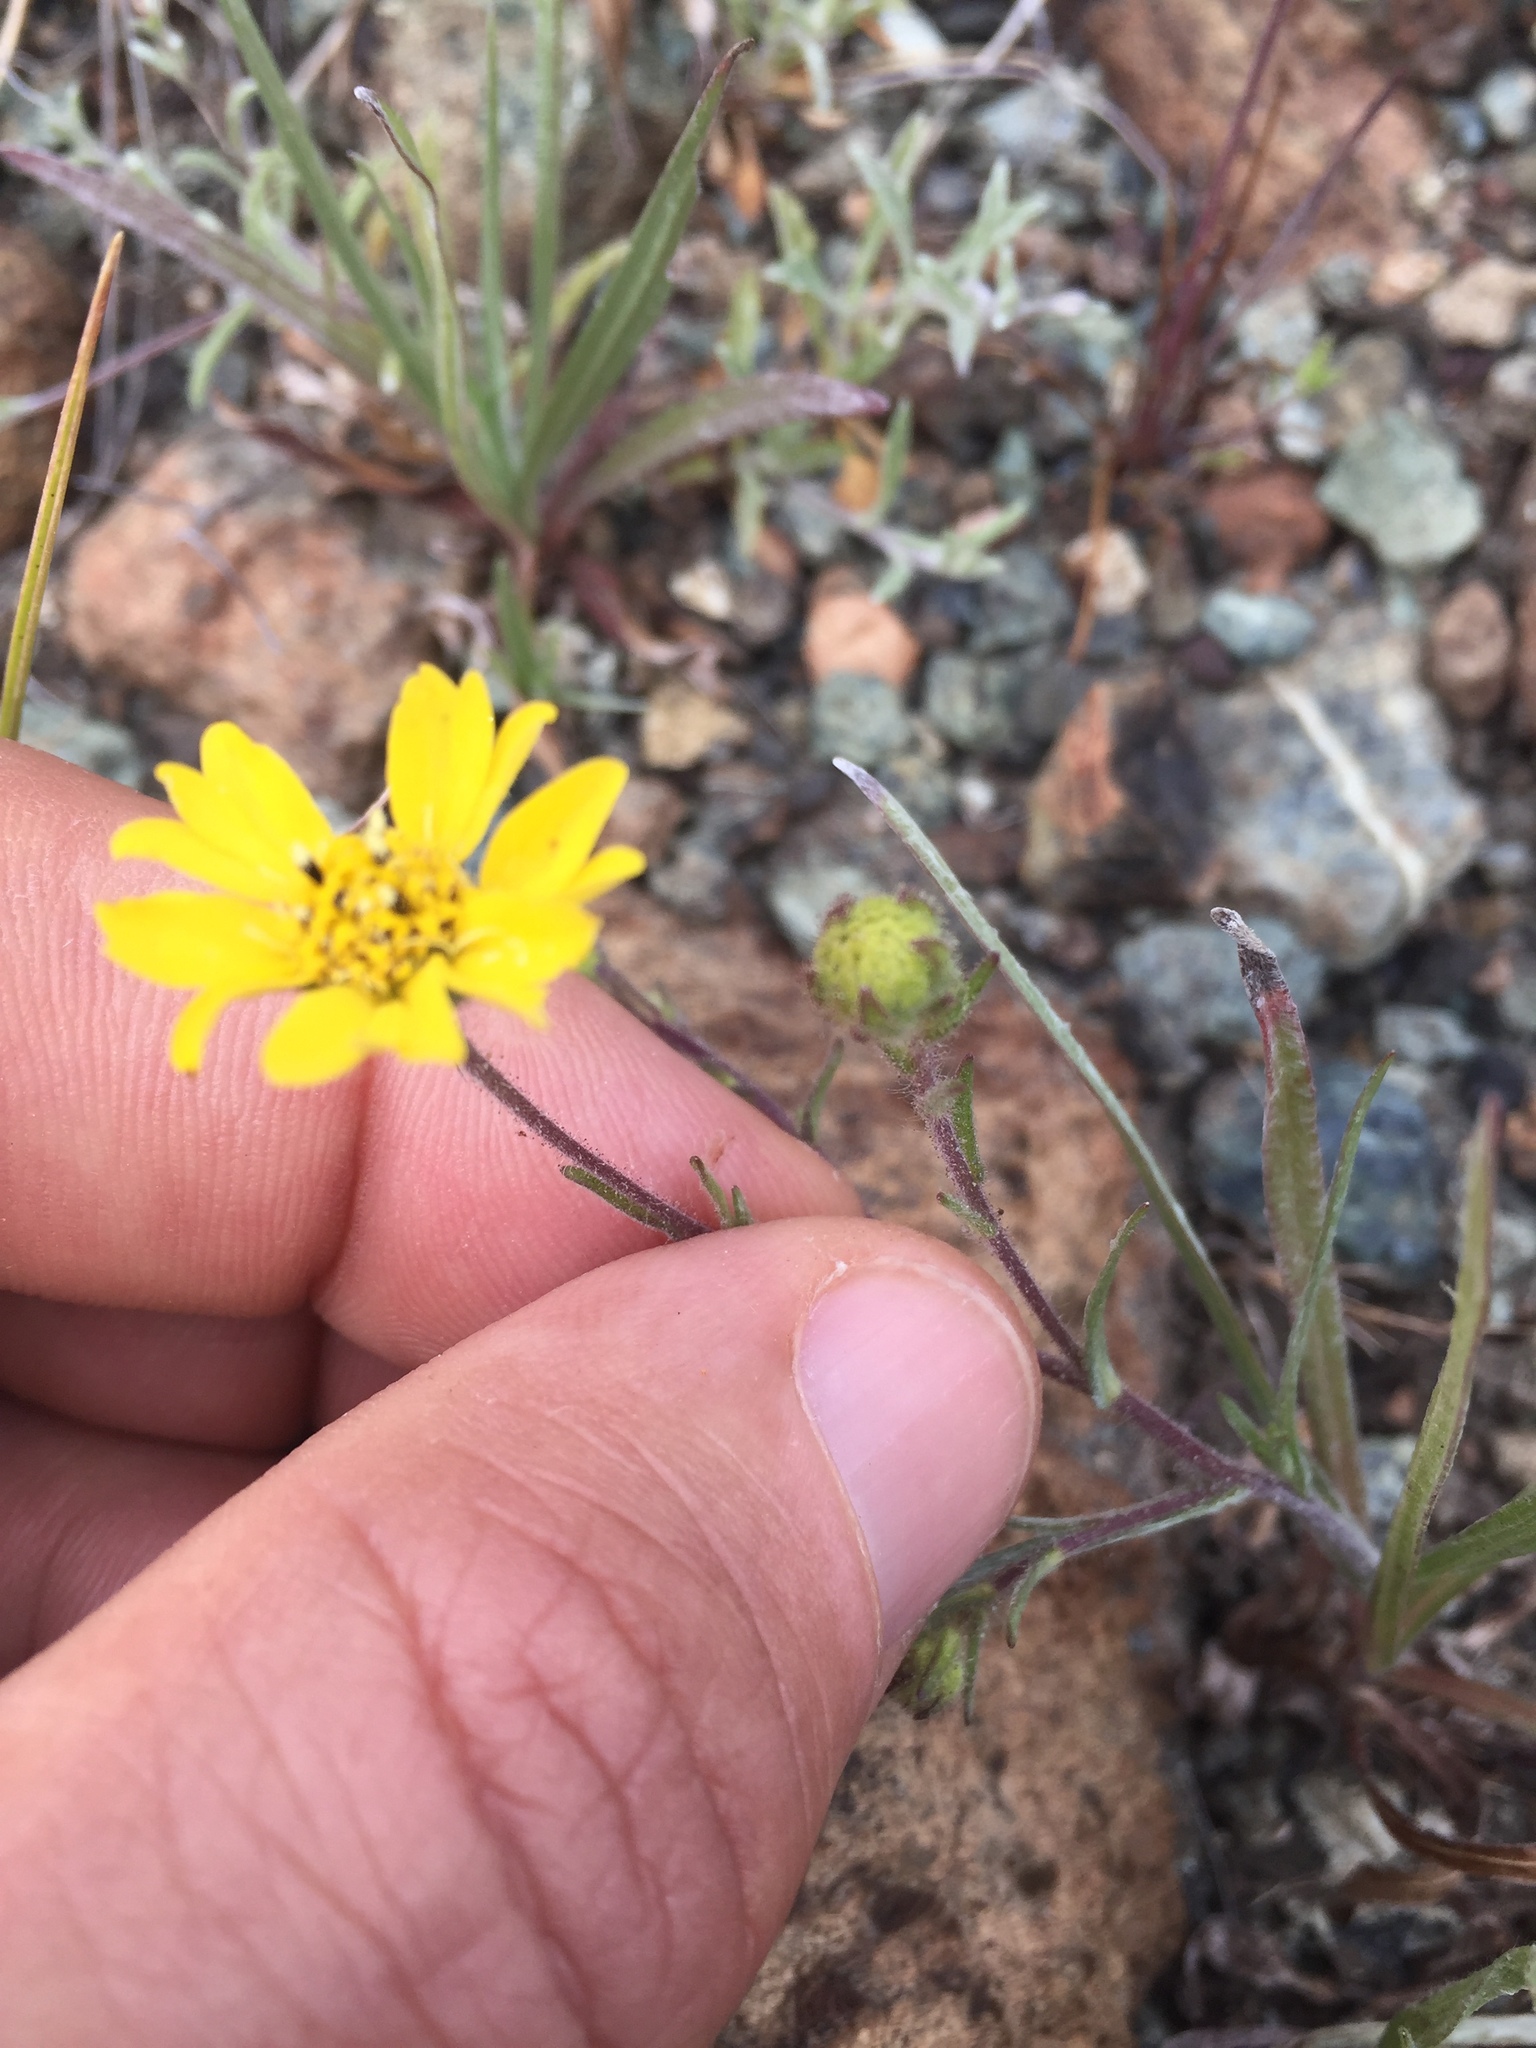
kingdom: Plantae
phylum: Tracheophyta
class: Magnoliopsida
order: Asterales
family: Asteraceae
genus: Hemizonia
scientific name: Hemizonia congesta
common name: Hayfield tarweed
